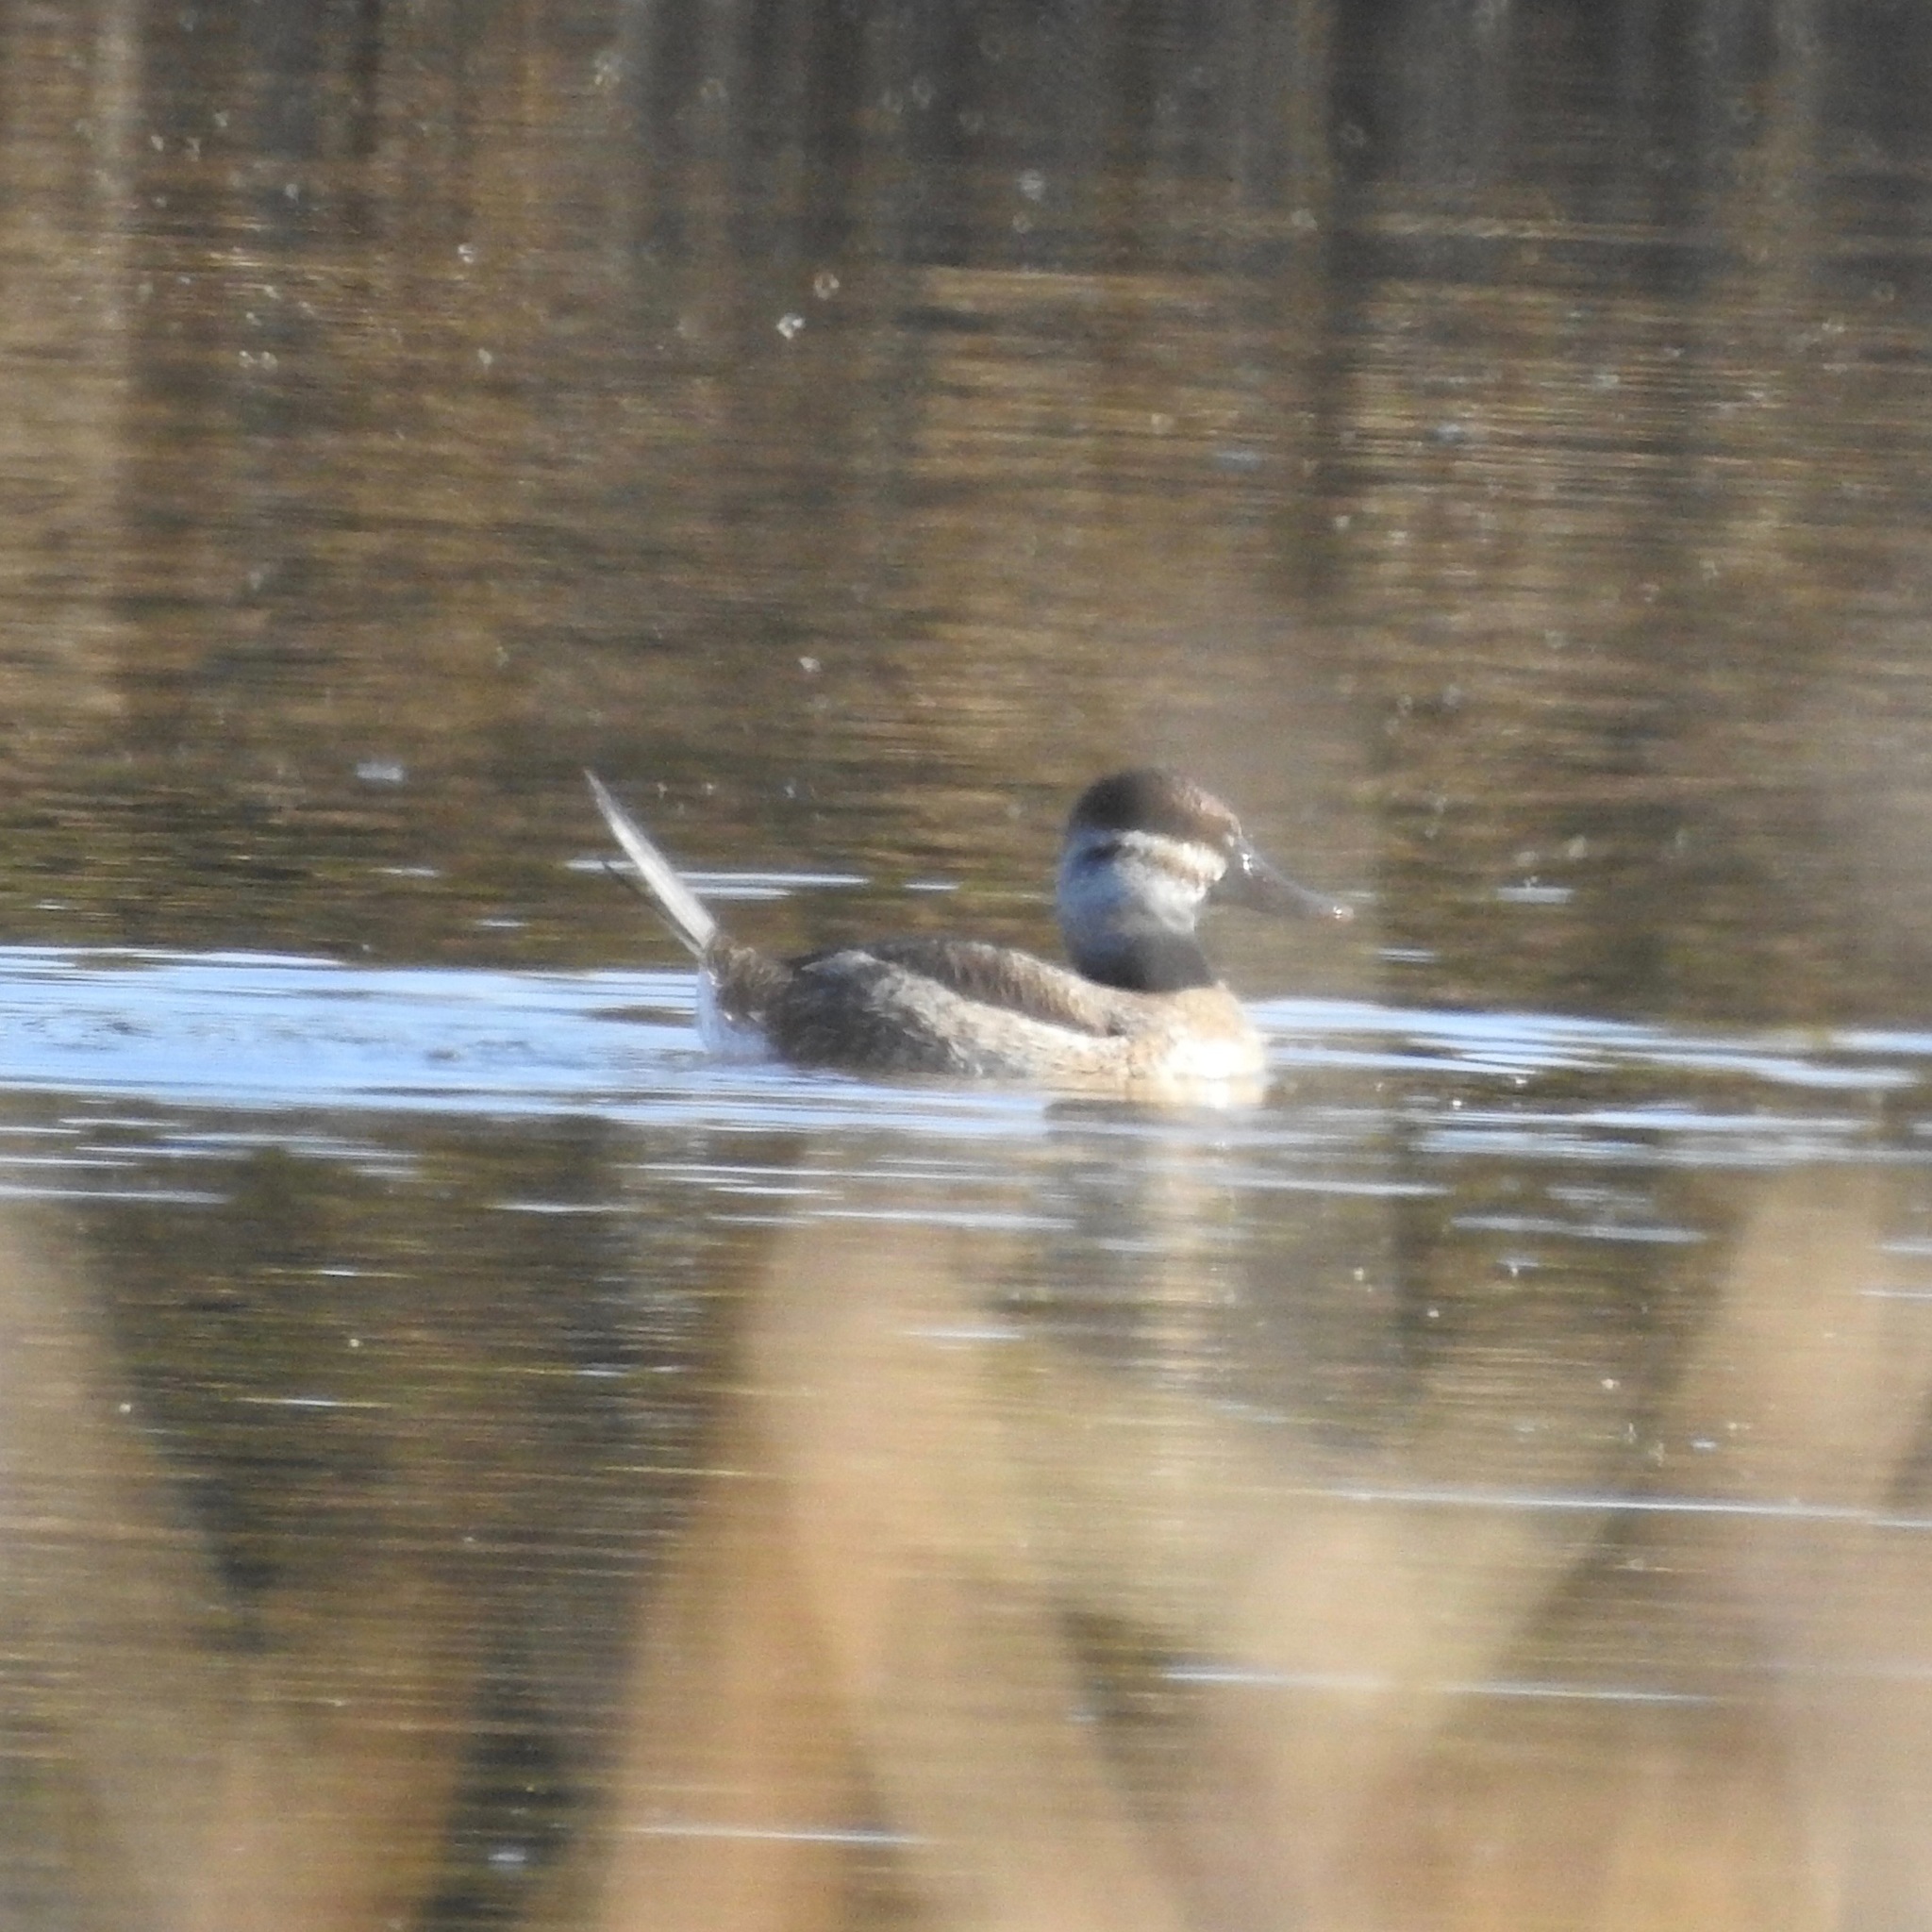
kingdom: Animalia
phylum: Chordata
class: Aves
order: Anseriformes
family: Anatidae
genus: Oxyura
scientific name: Oxyura jamaicensis
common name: Ruddy duck
